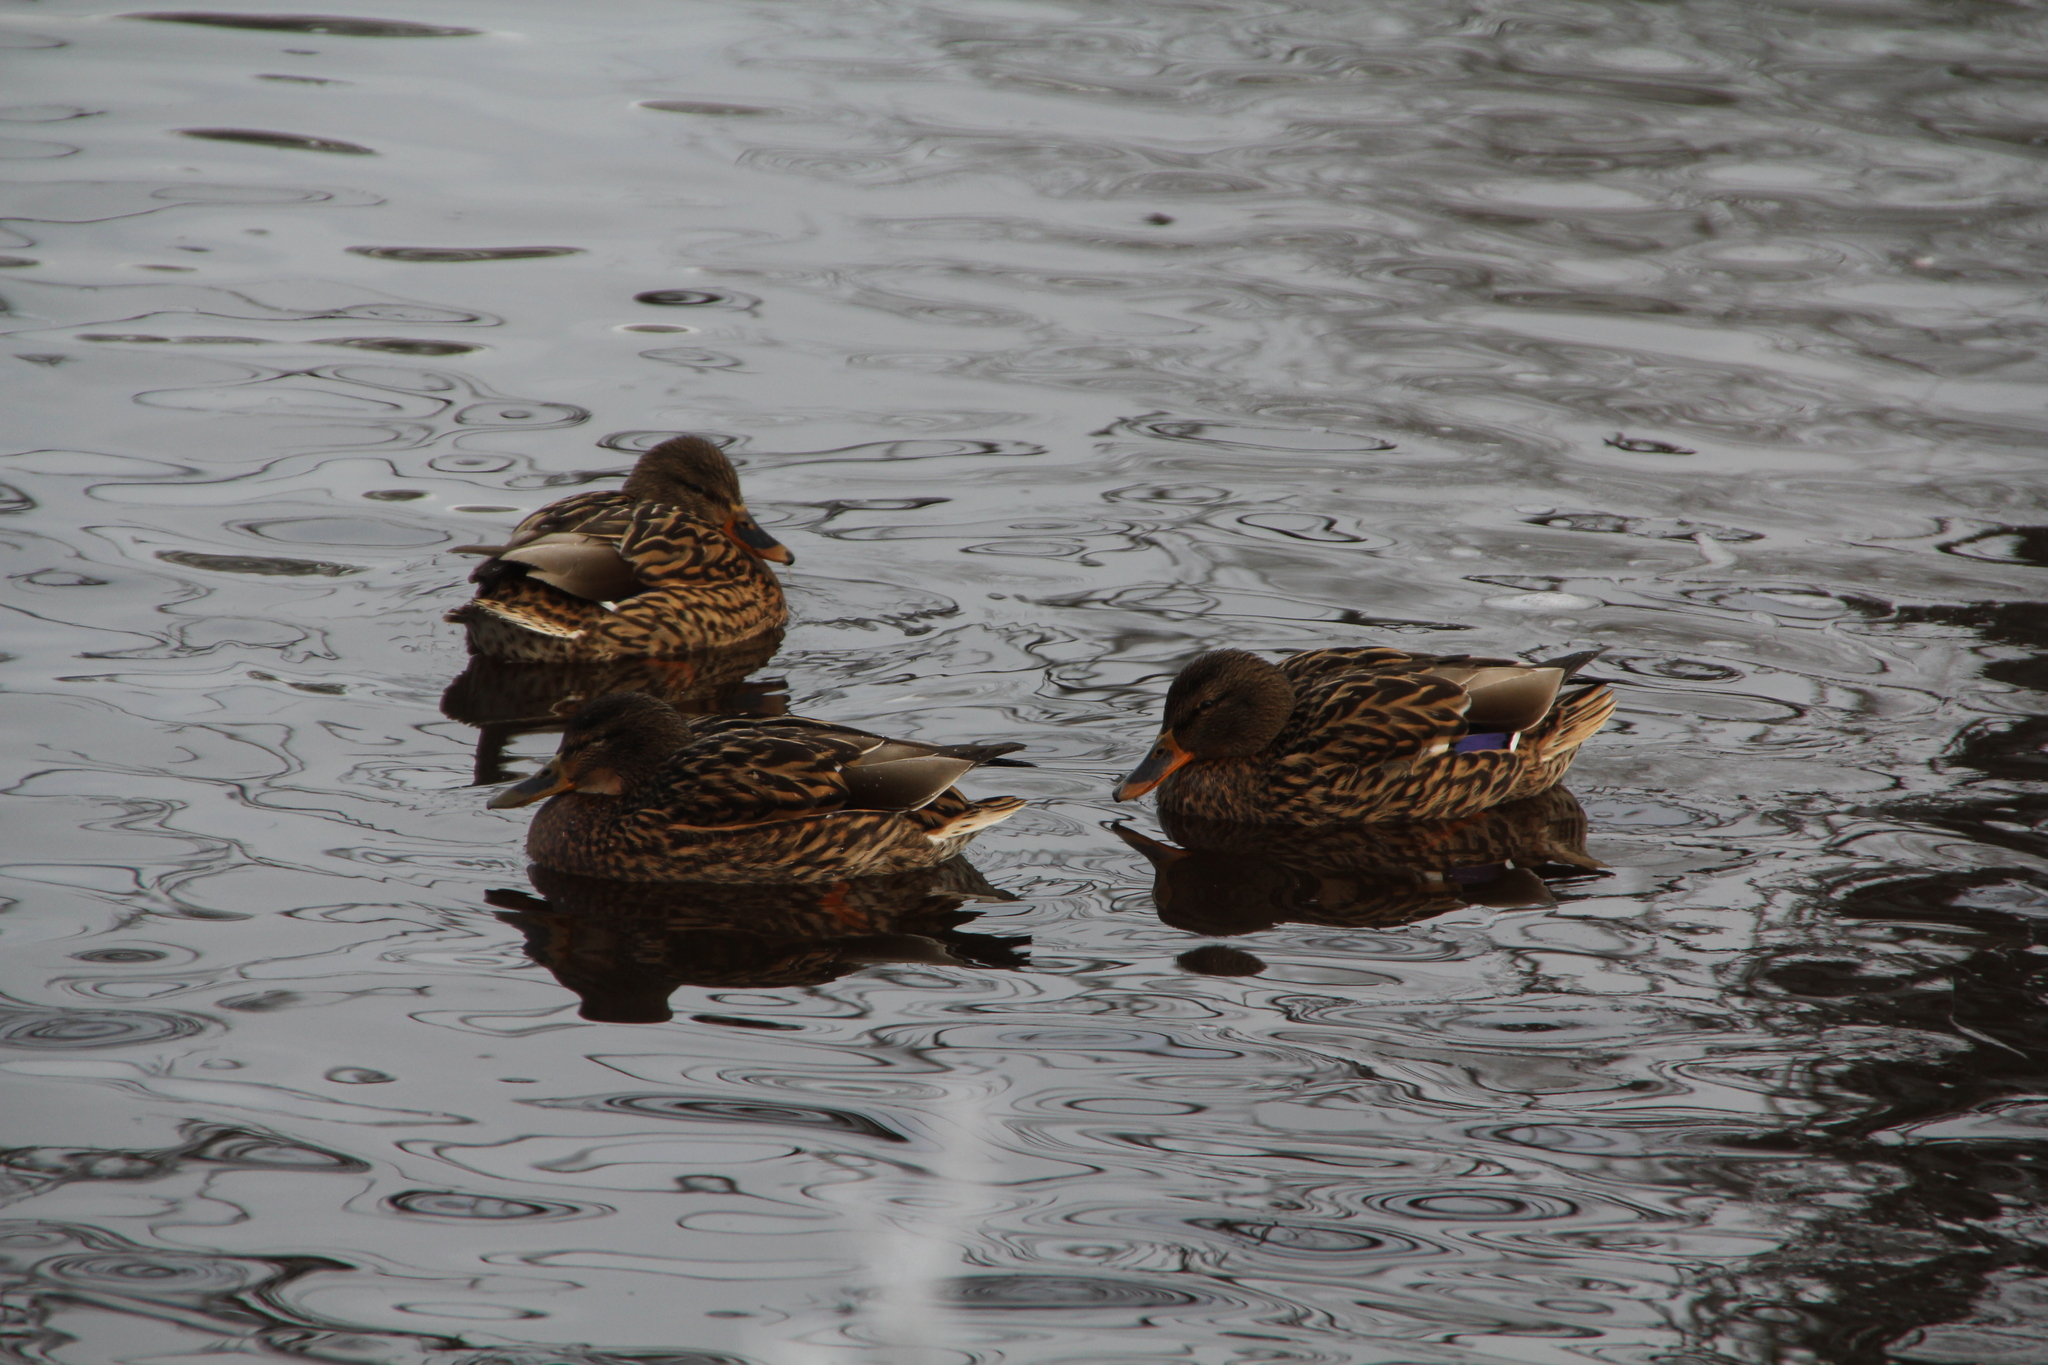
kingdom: Animalia
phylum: Chordata
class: Aves
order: Anseriformes
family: Anatidae
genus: Anas
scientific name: Anas platyrhynchos
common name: Mallard
